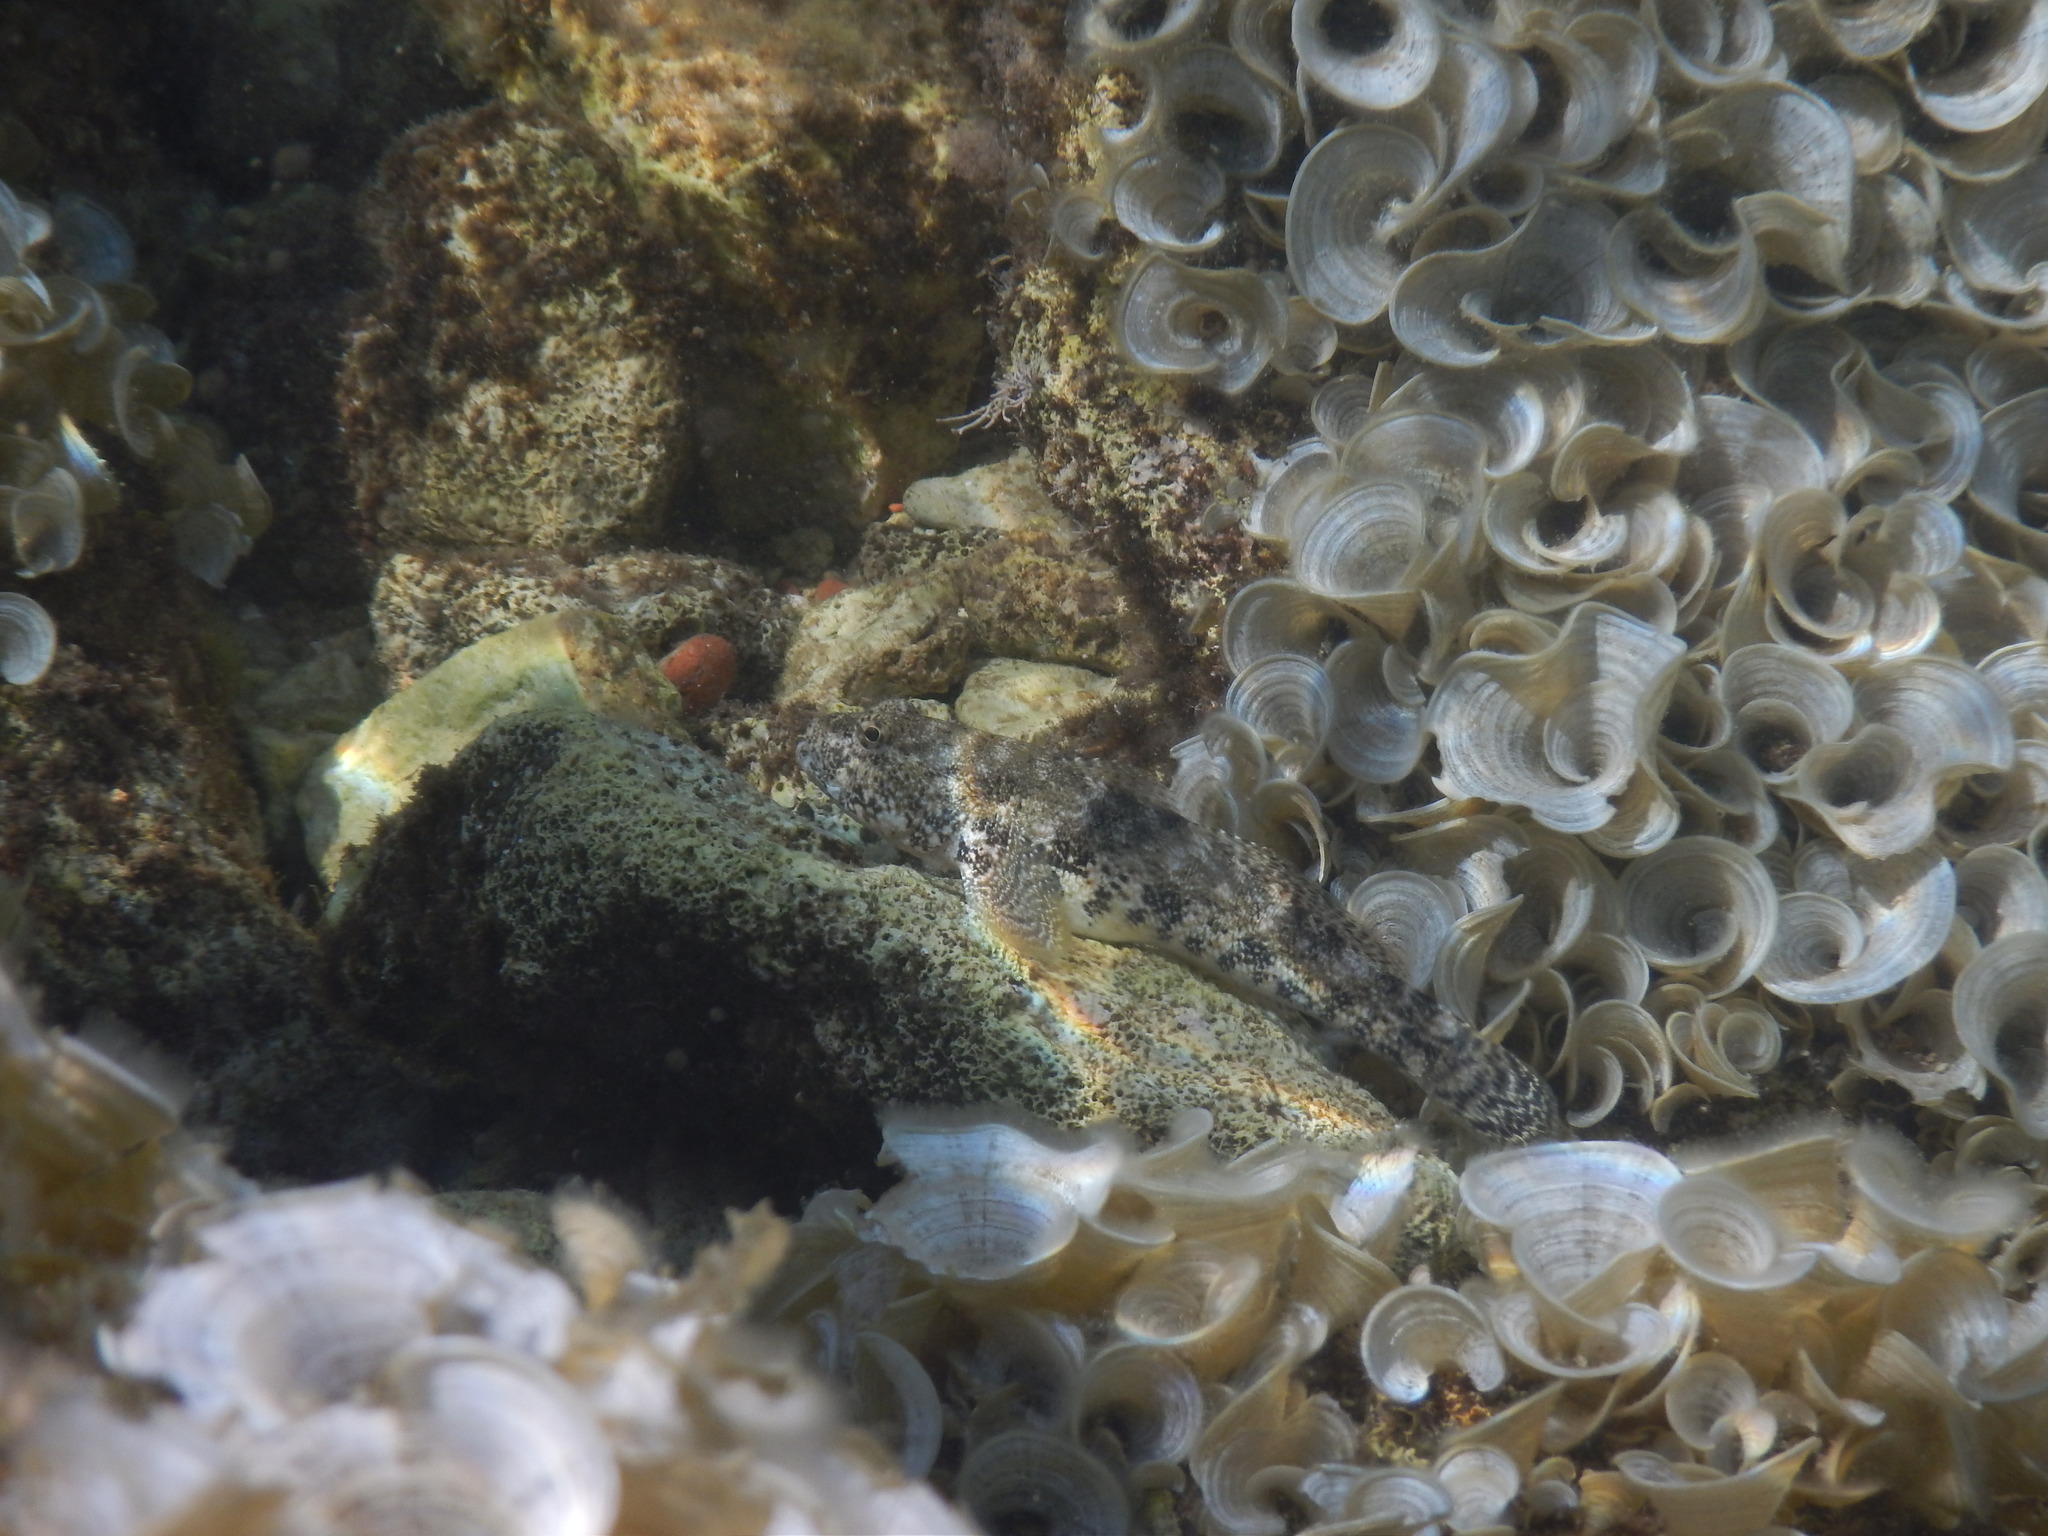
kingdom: Animalia
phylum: Chordata
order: Perciformes
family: Gobiidae
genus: Gobius
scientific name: Gobius cobitis
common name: Giant goby
